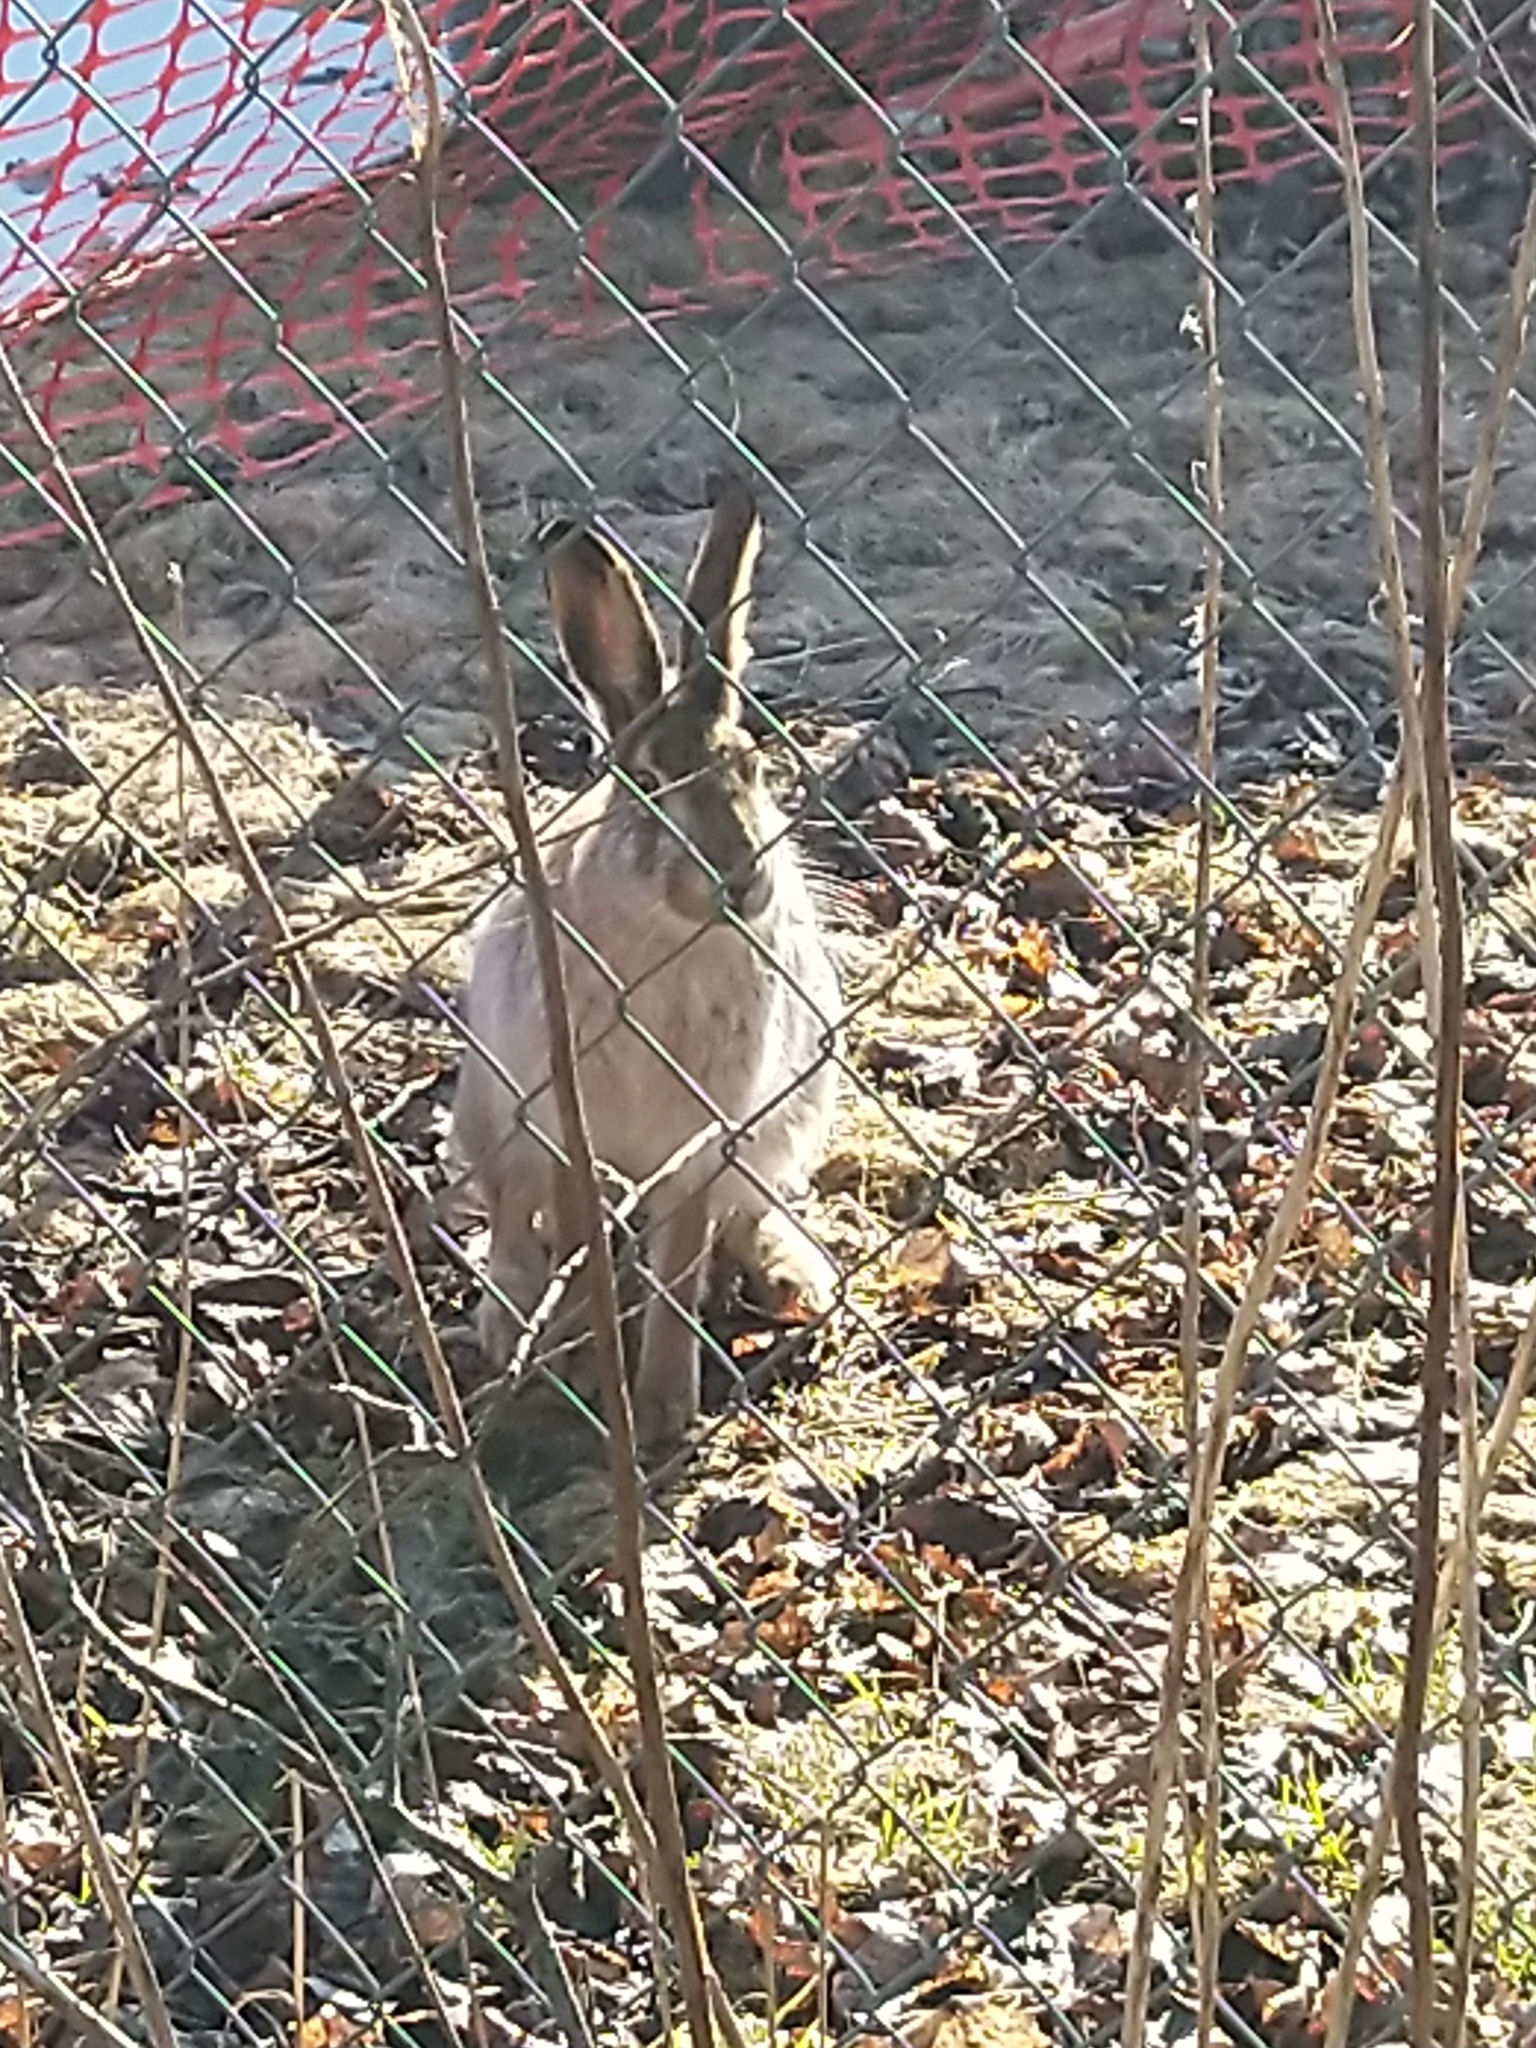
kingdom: Animalia
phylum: Chordata
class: Mammalia
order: Lagomorpha
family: Leporidae
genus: Lepus
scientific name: Lepus europaeus
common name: European hare
